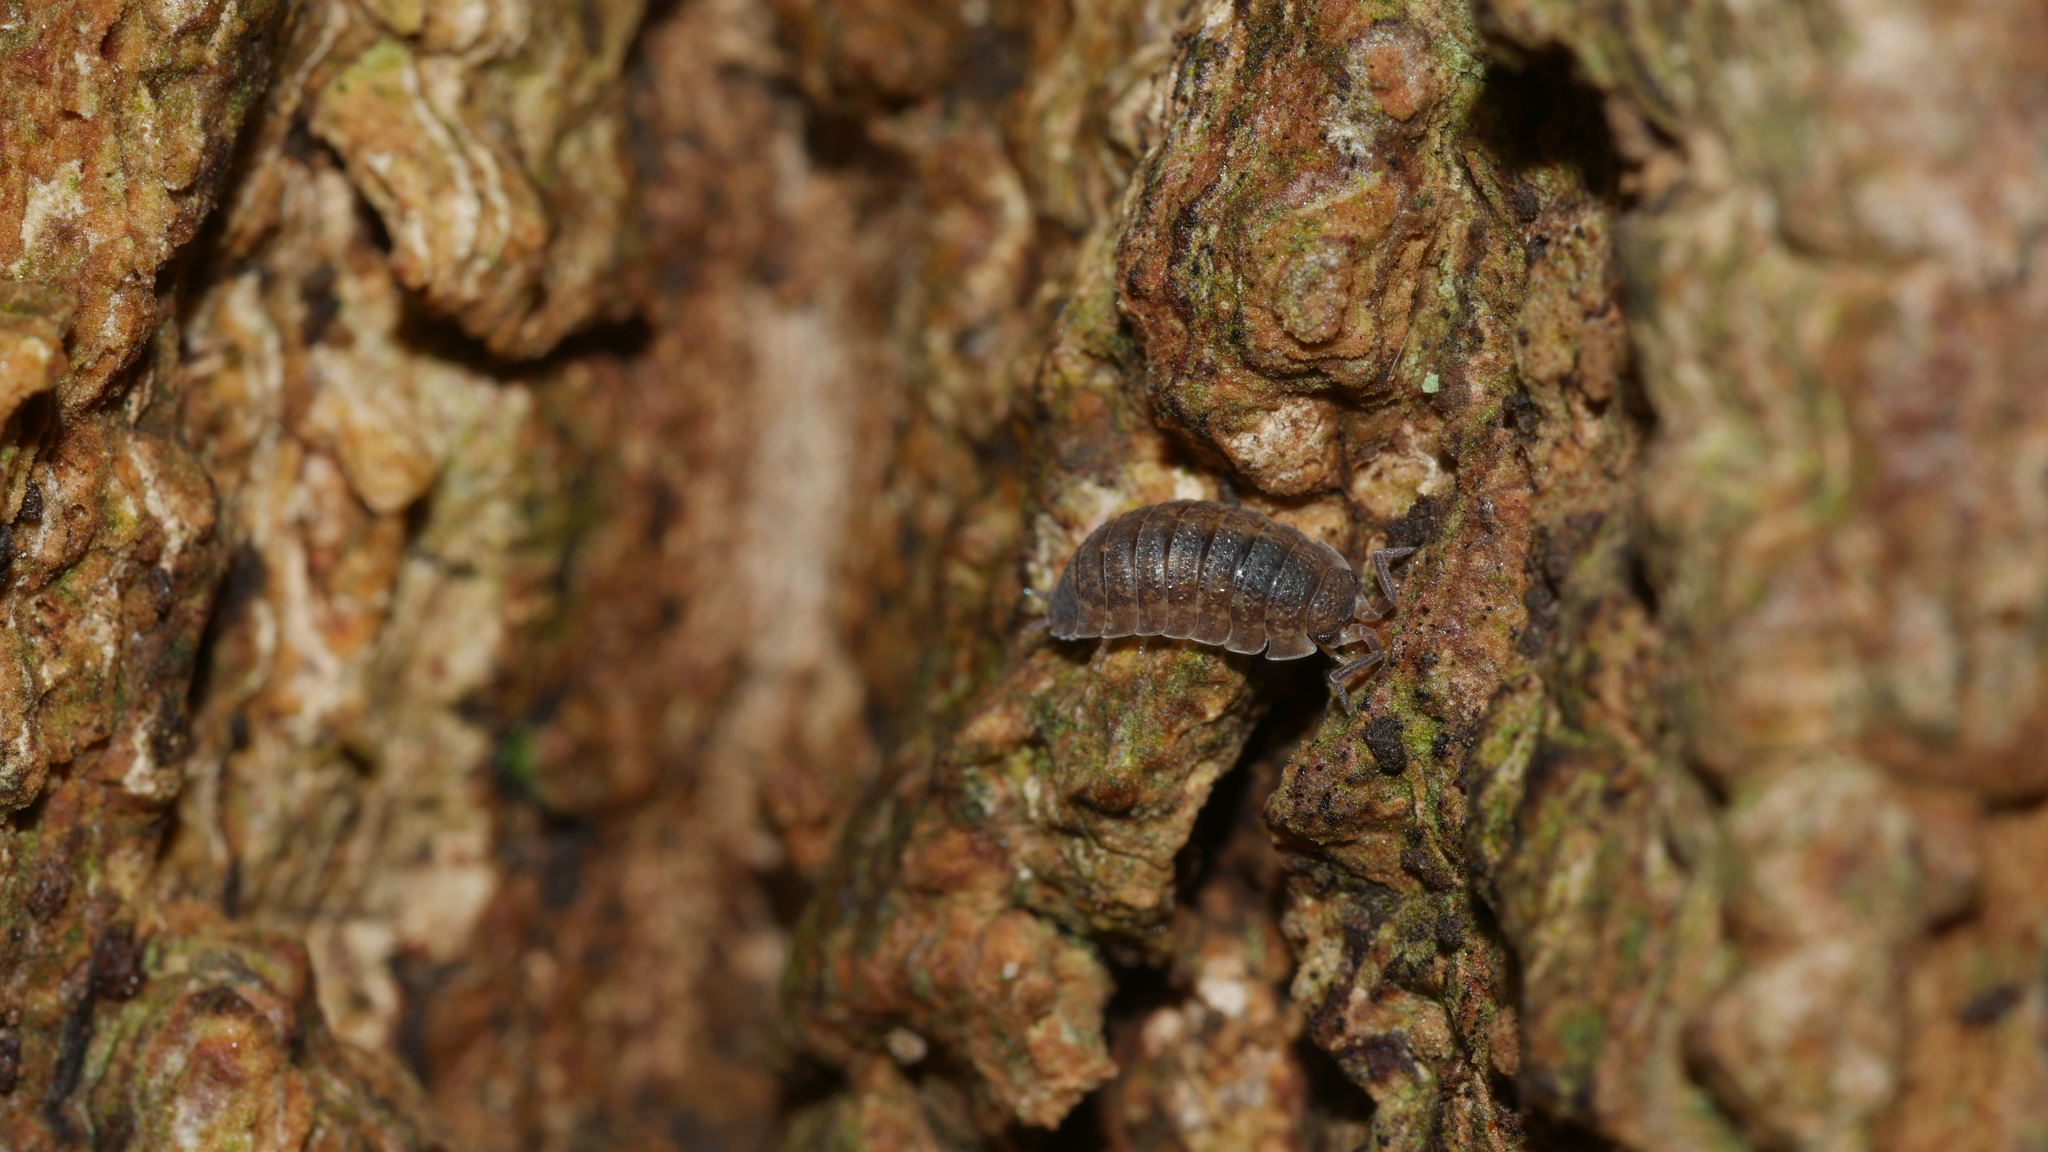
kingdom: Animalia
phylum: Arthropoda
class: Malacostraca
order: Isopoda
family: Porcellionidae
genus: Porcellio
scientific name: Porcellio scaber
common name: Common rough woodlouse
